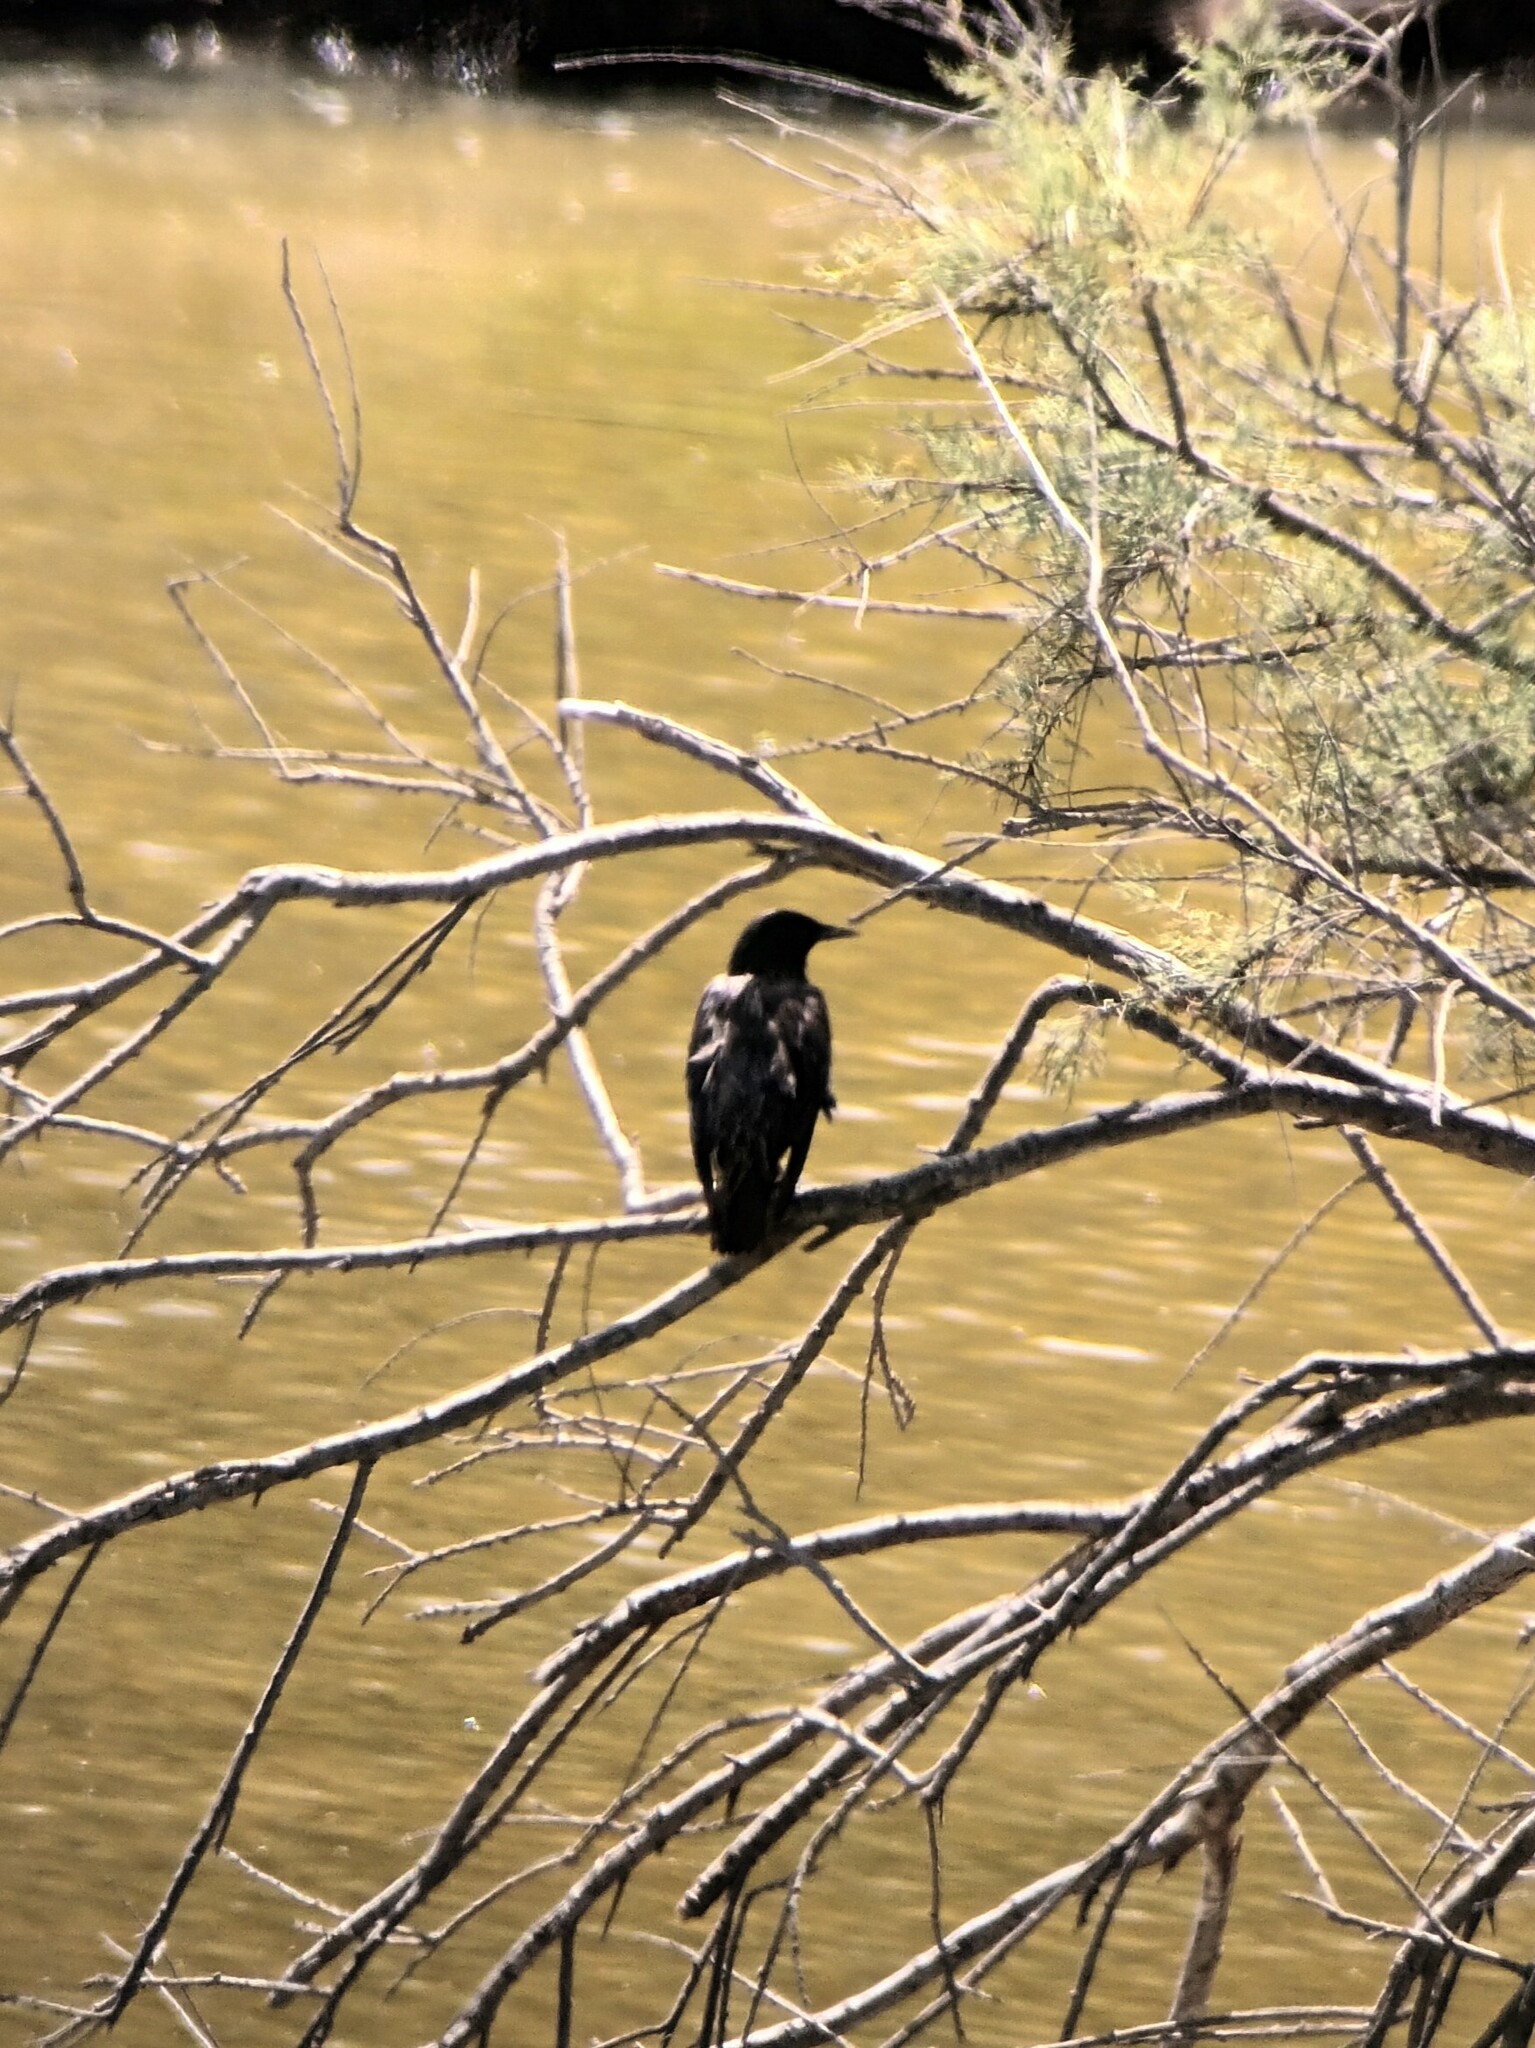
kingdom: Animalia
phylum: Chordata
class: Aves
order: Passeriformes
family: Sturnidae
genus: Sturnus
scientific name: Sturnus unicolor
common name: Spotless starling
